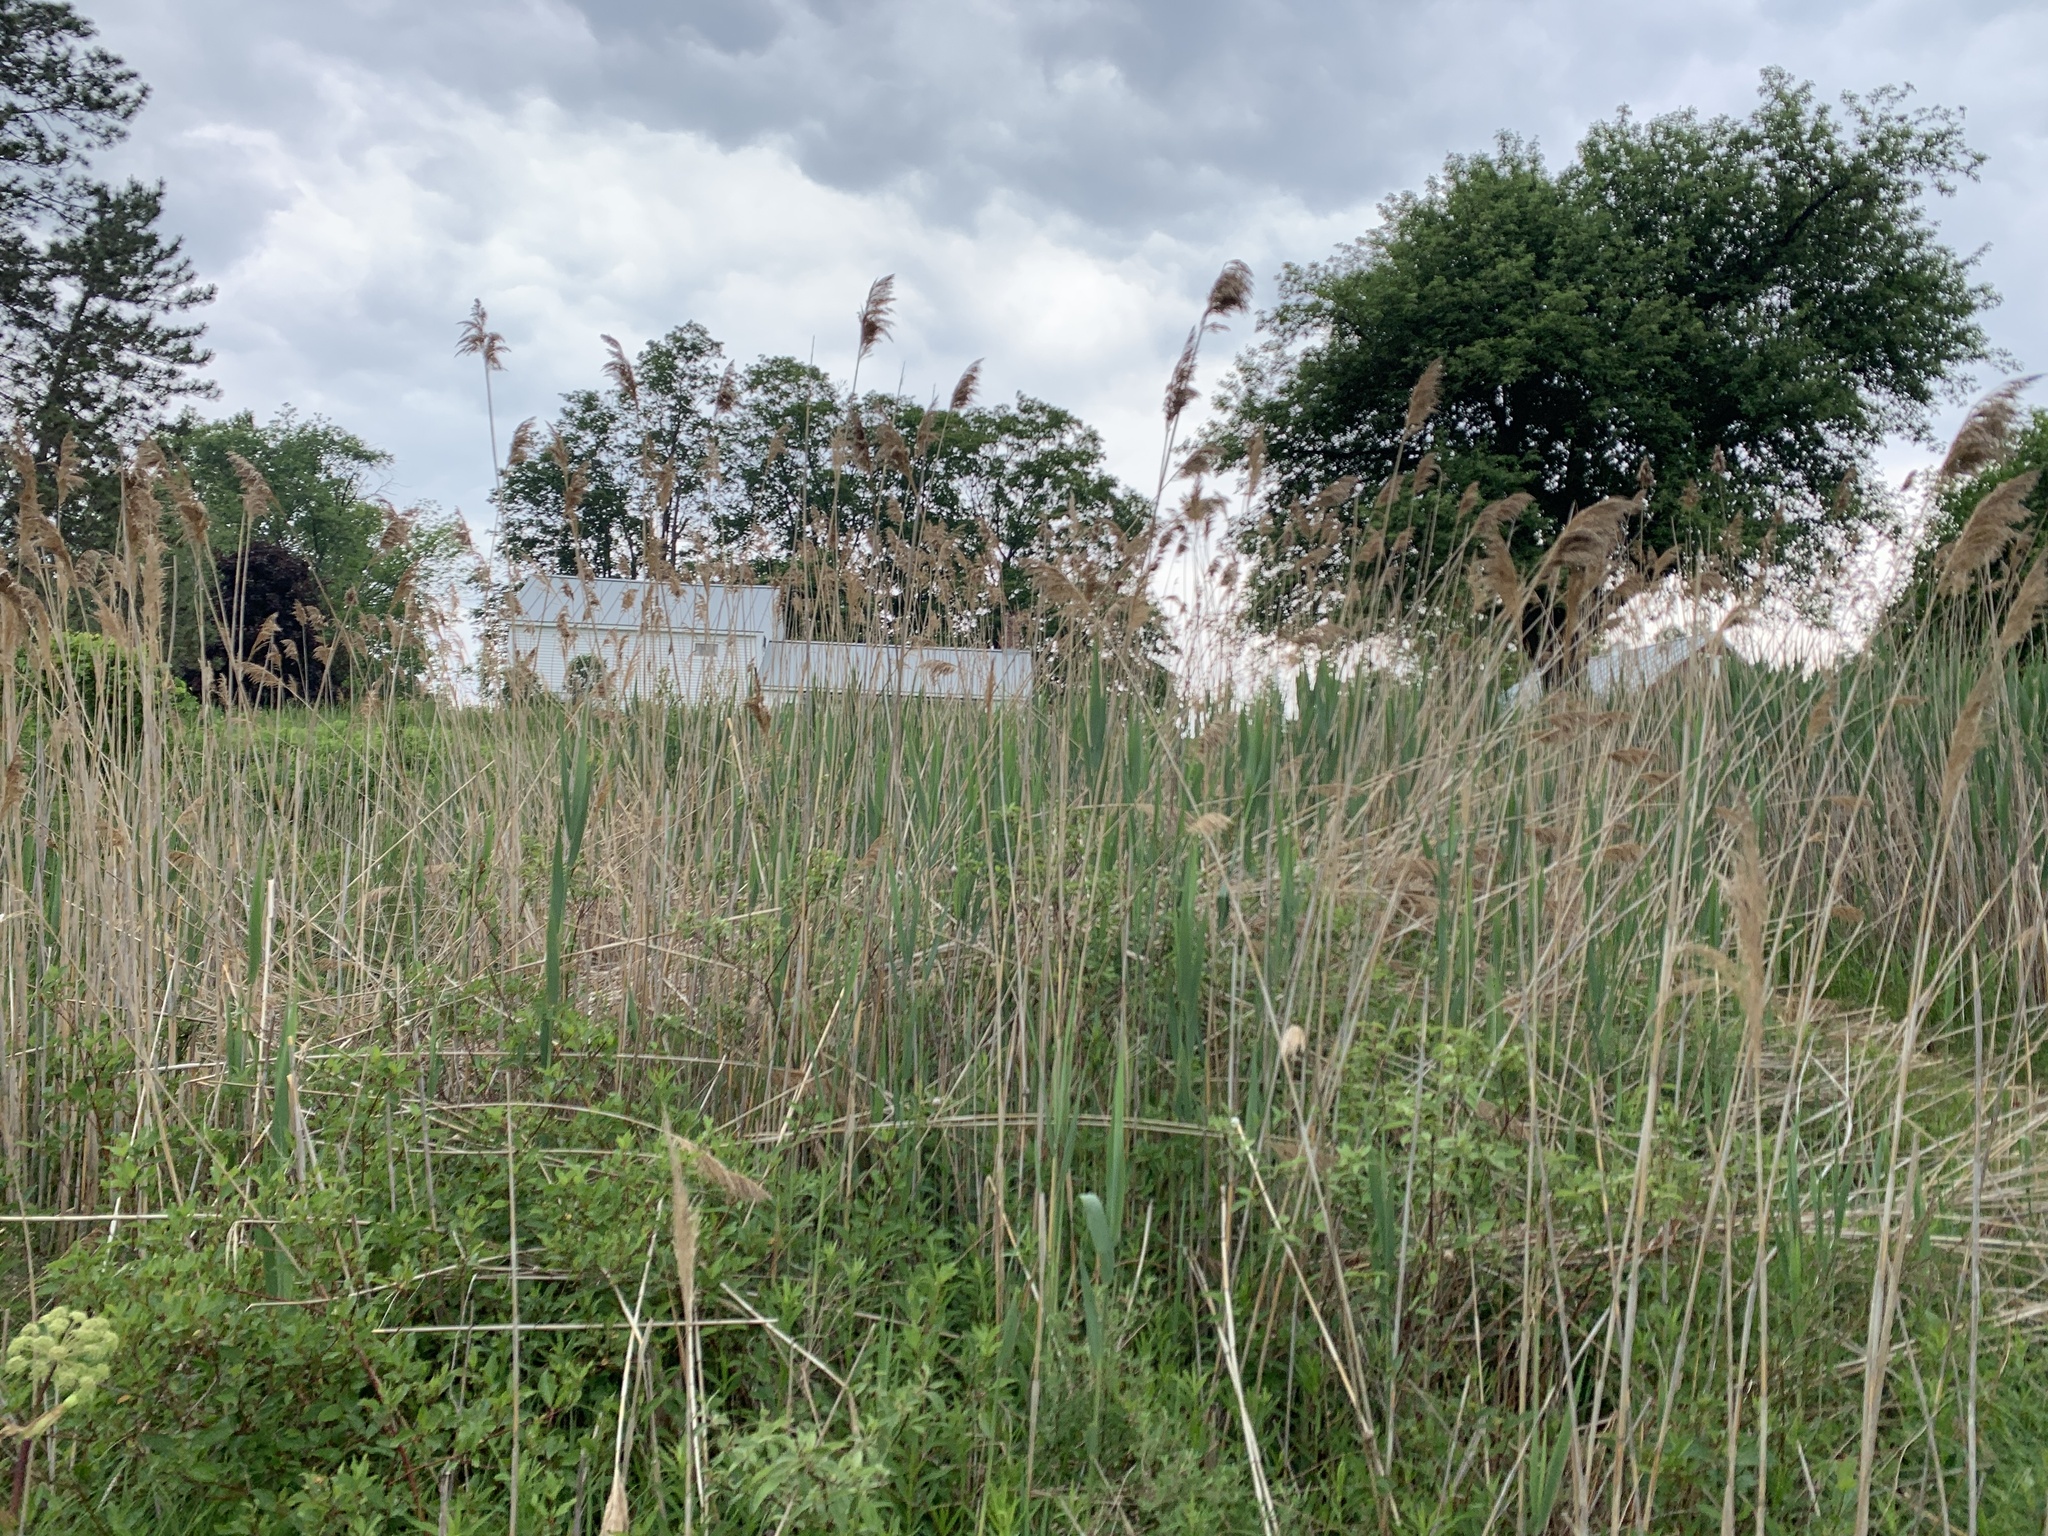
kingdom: Plantae
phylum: Tracheophyta
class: Liliopsida
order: Poales
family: Poaceae
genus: Phragmites
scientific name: Phragmites australis
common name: Common reed
